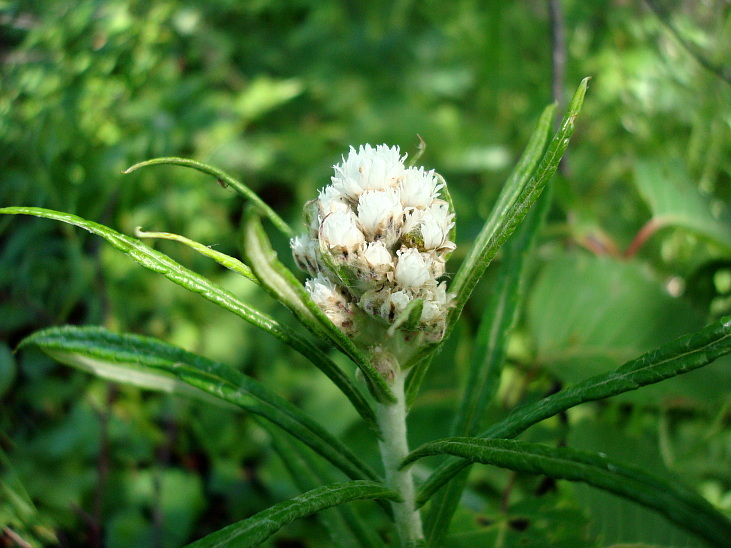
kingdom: Plantae
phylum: Tracheophyta
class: Magnoliopsida
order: Asterales
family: Asteraceae
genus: Anaphalis
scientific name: Anaphalis margaritacea
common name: Pearly everlasting
